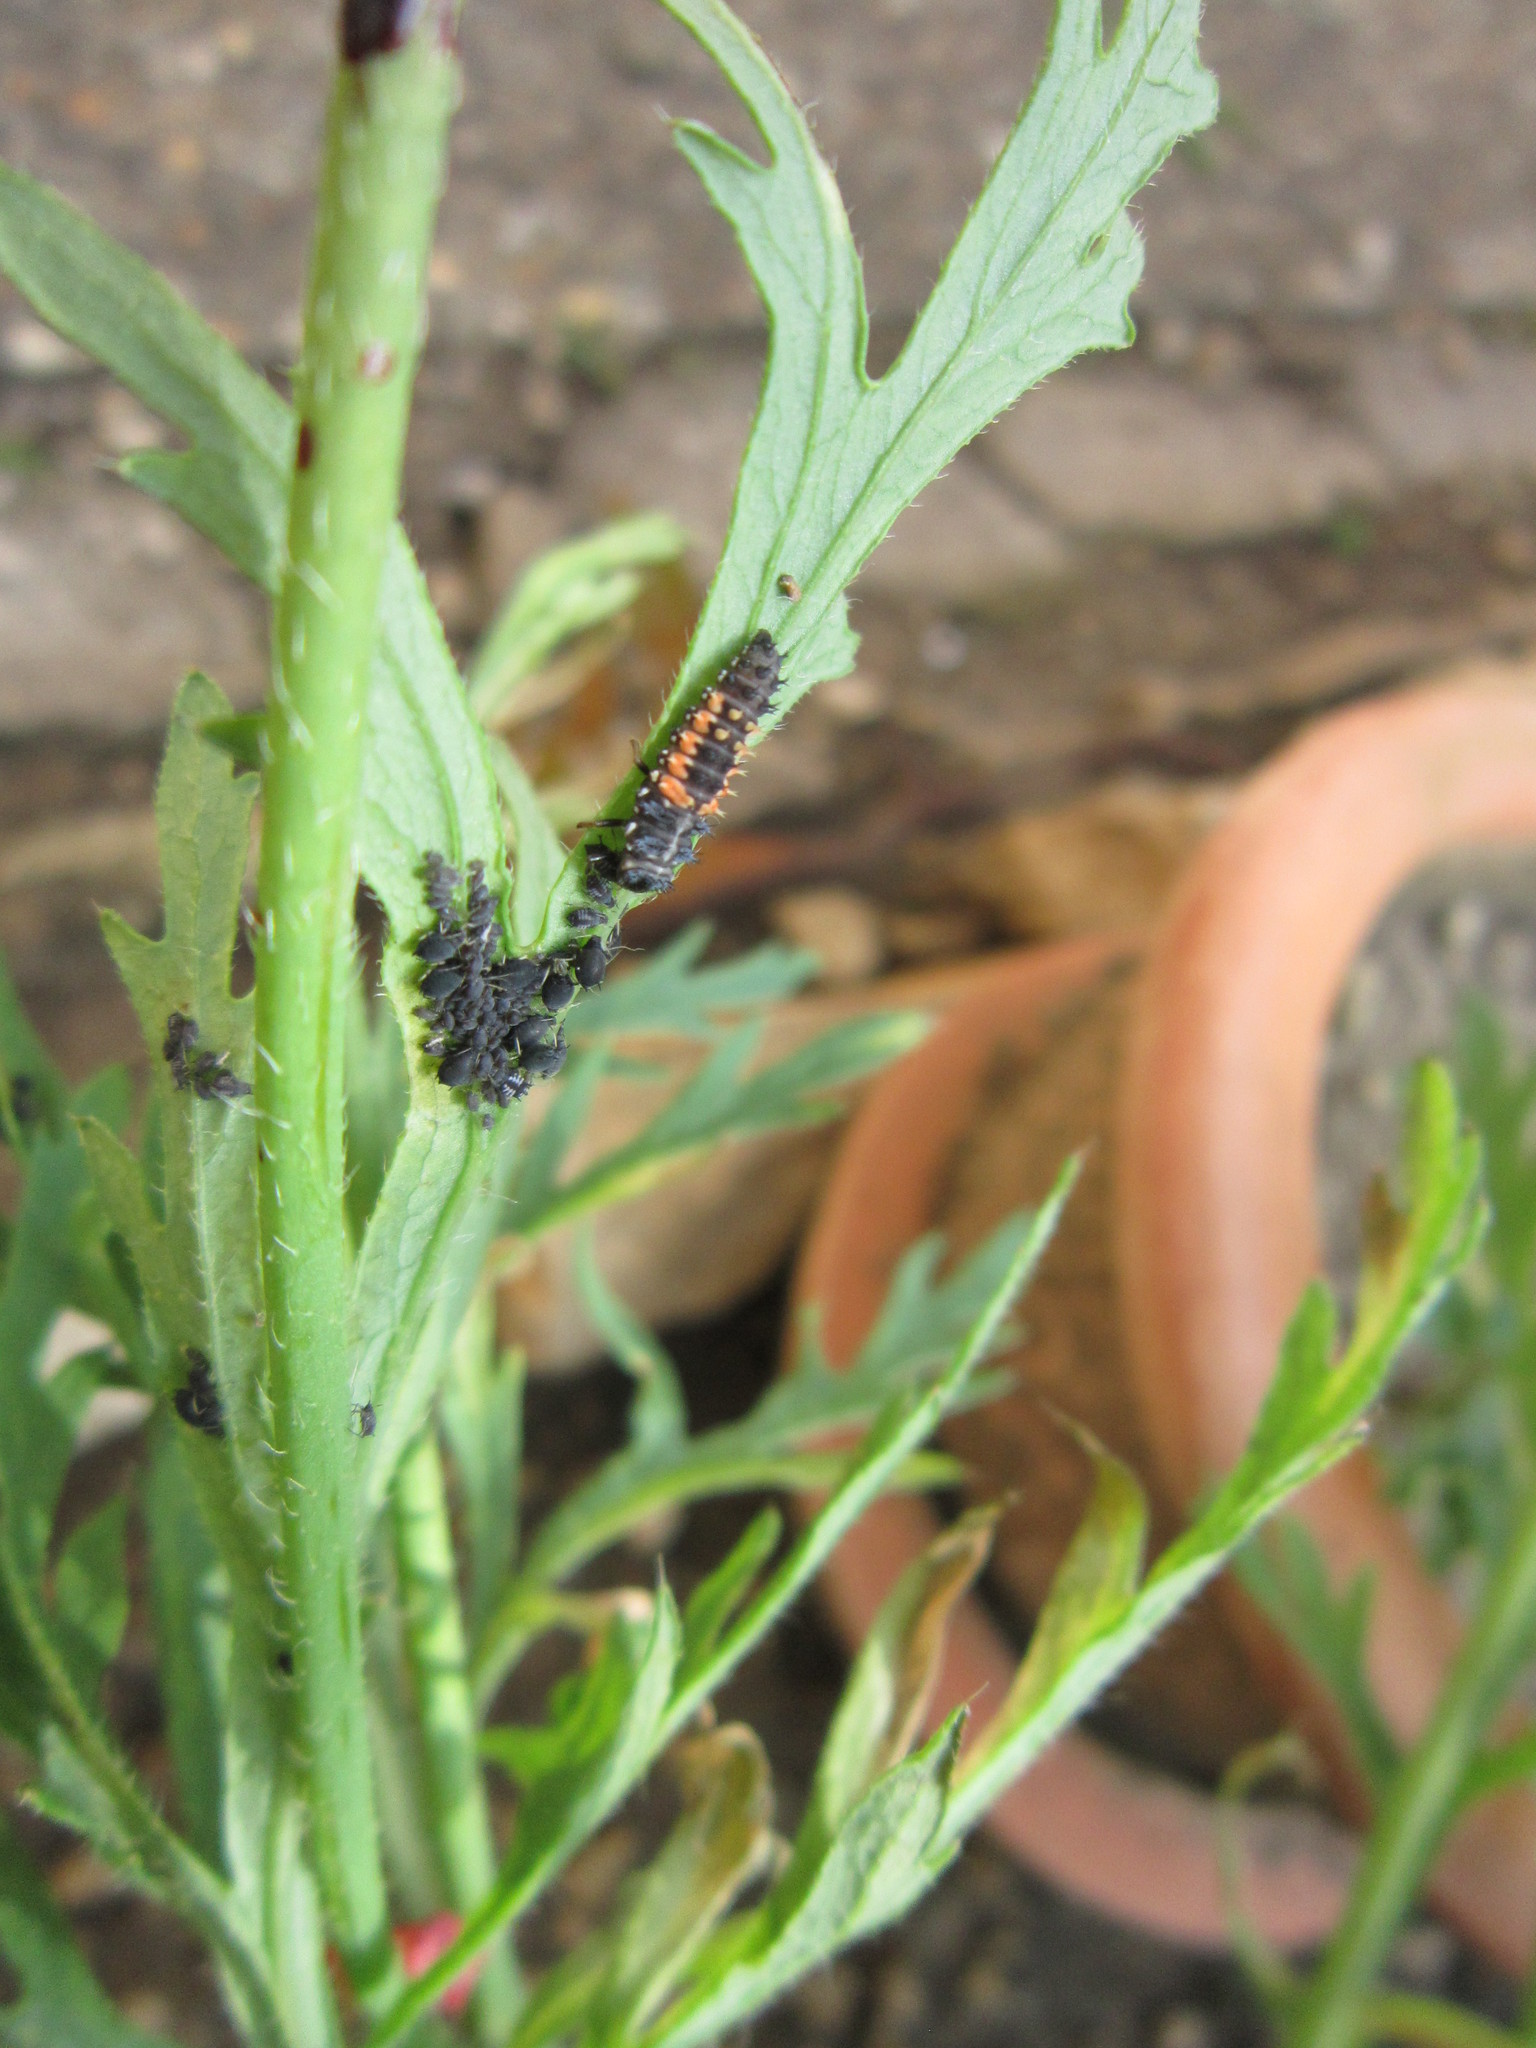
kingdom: Animalia
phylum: Arthropoda
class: Insecta
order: Coleoptera
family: Coccinellidae
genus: Harmonia
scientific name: Harmonia axyridis
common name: Harlequin ladybird
